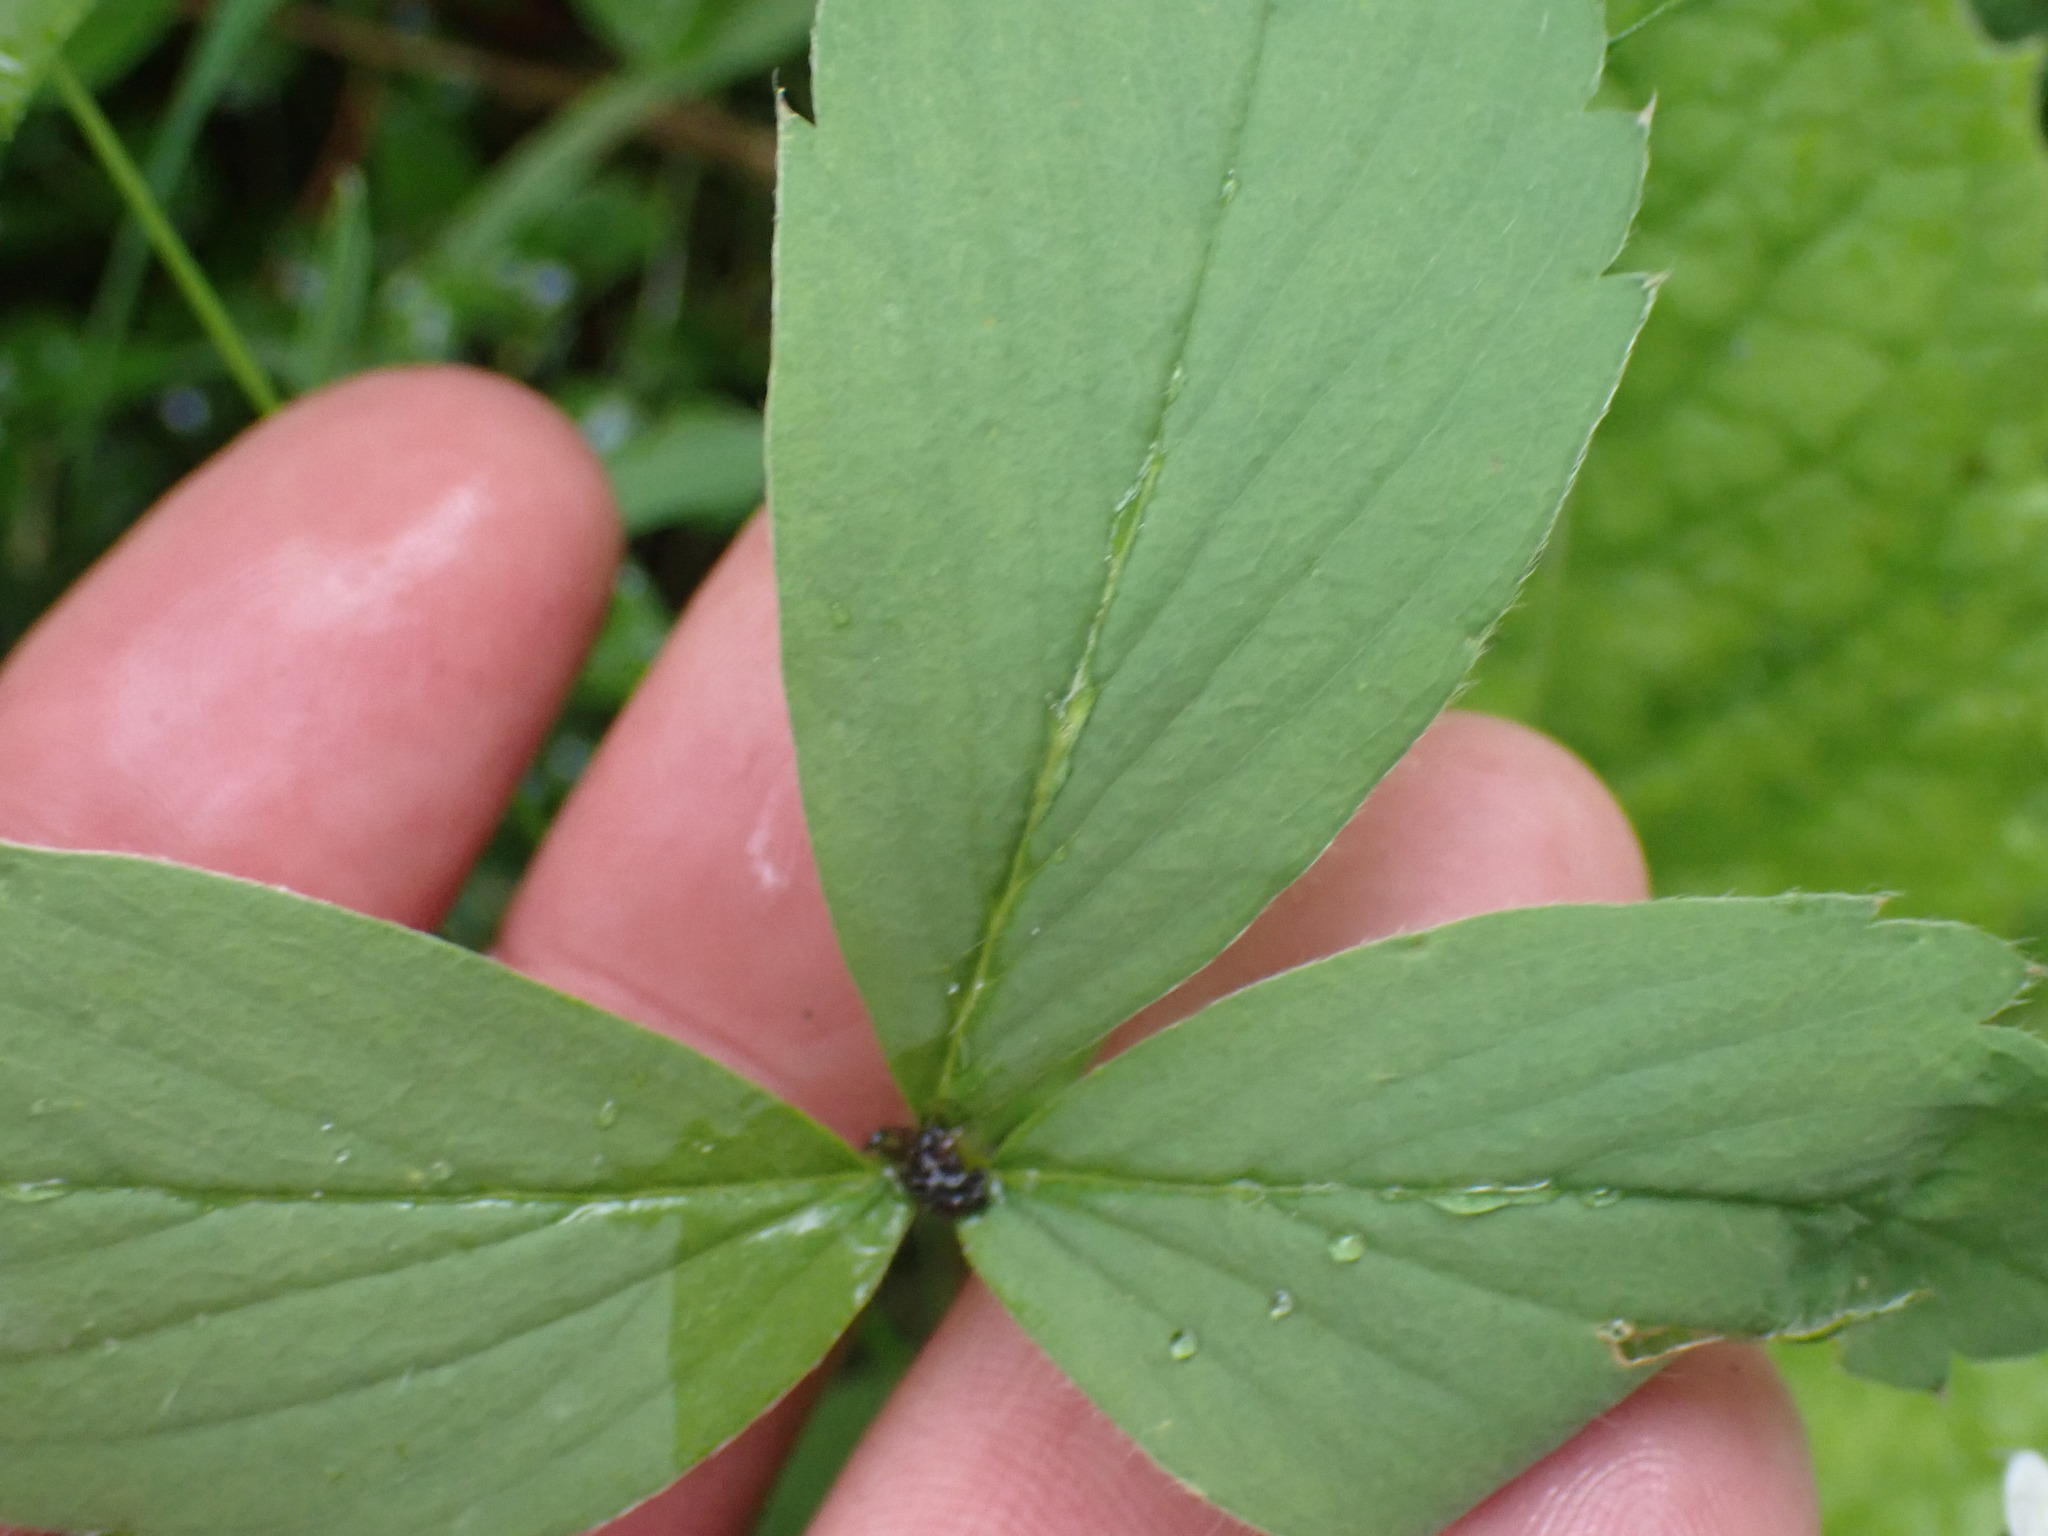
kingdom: Plantae
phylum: Tracheophyta
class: Magnoliopsida
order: Rosales
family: Rosaceae
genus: Fragaria
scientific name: Fragaria virginiana
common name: Thickleaved wild strawberry
